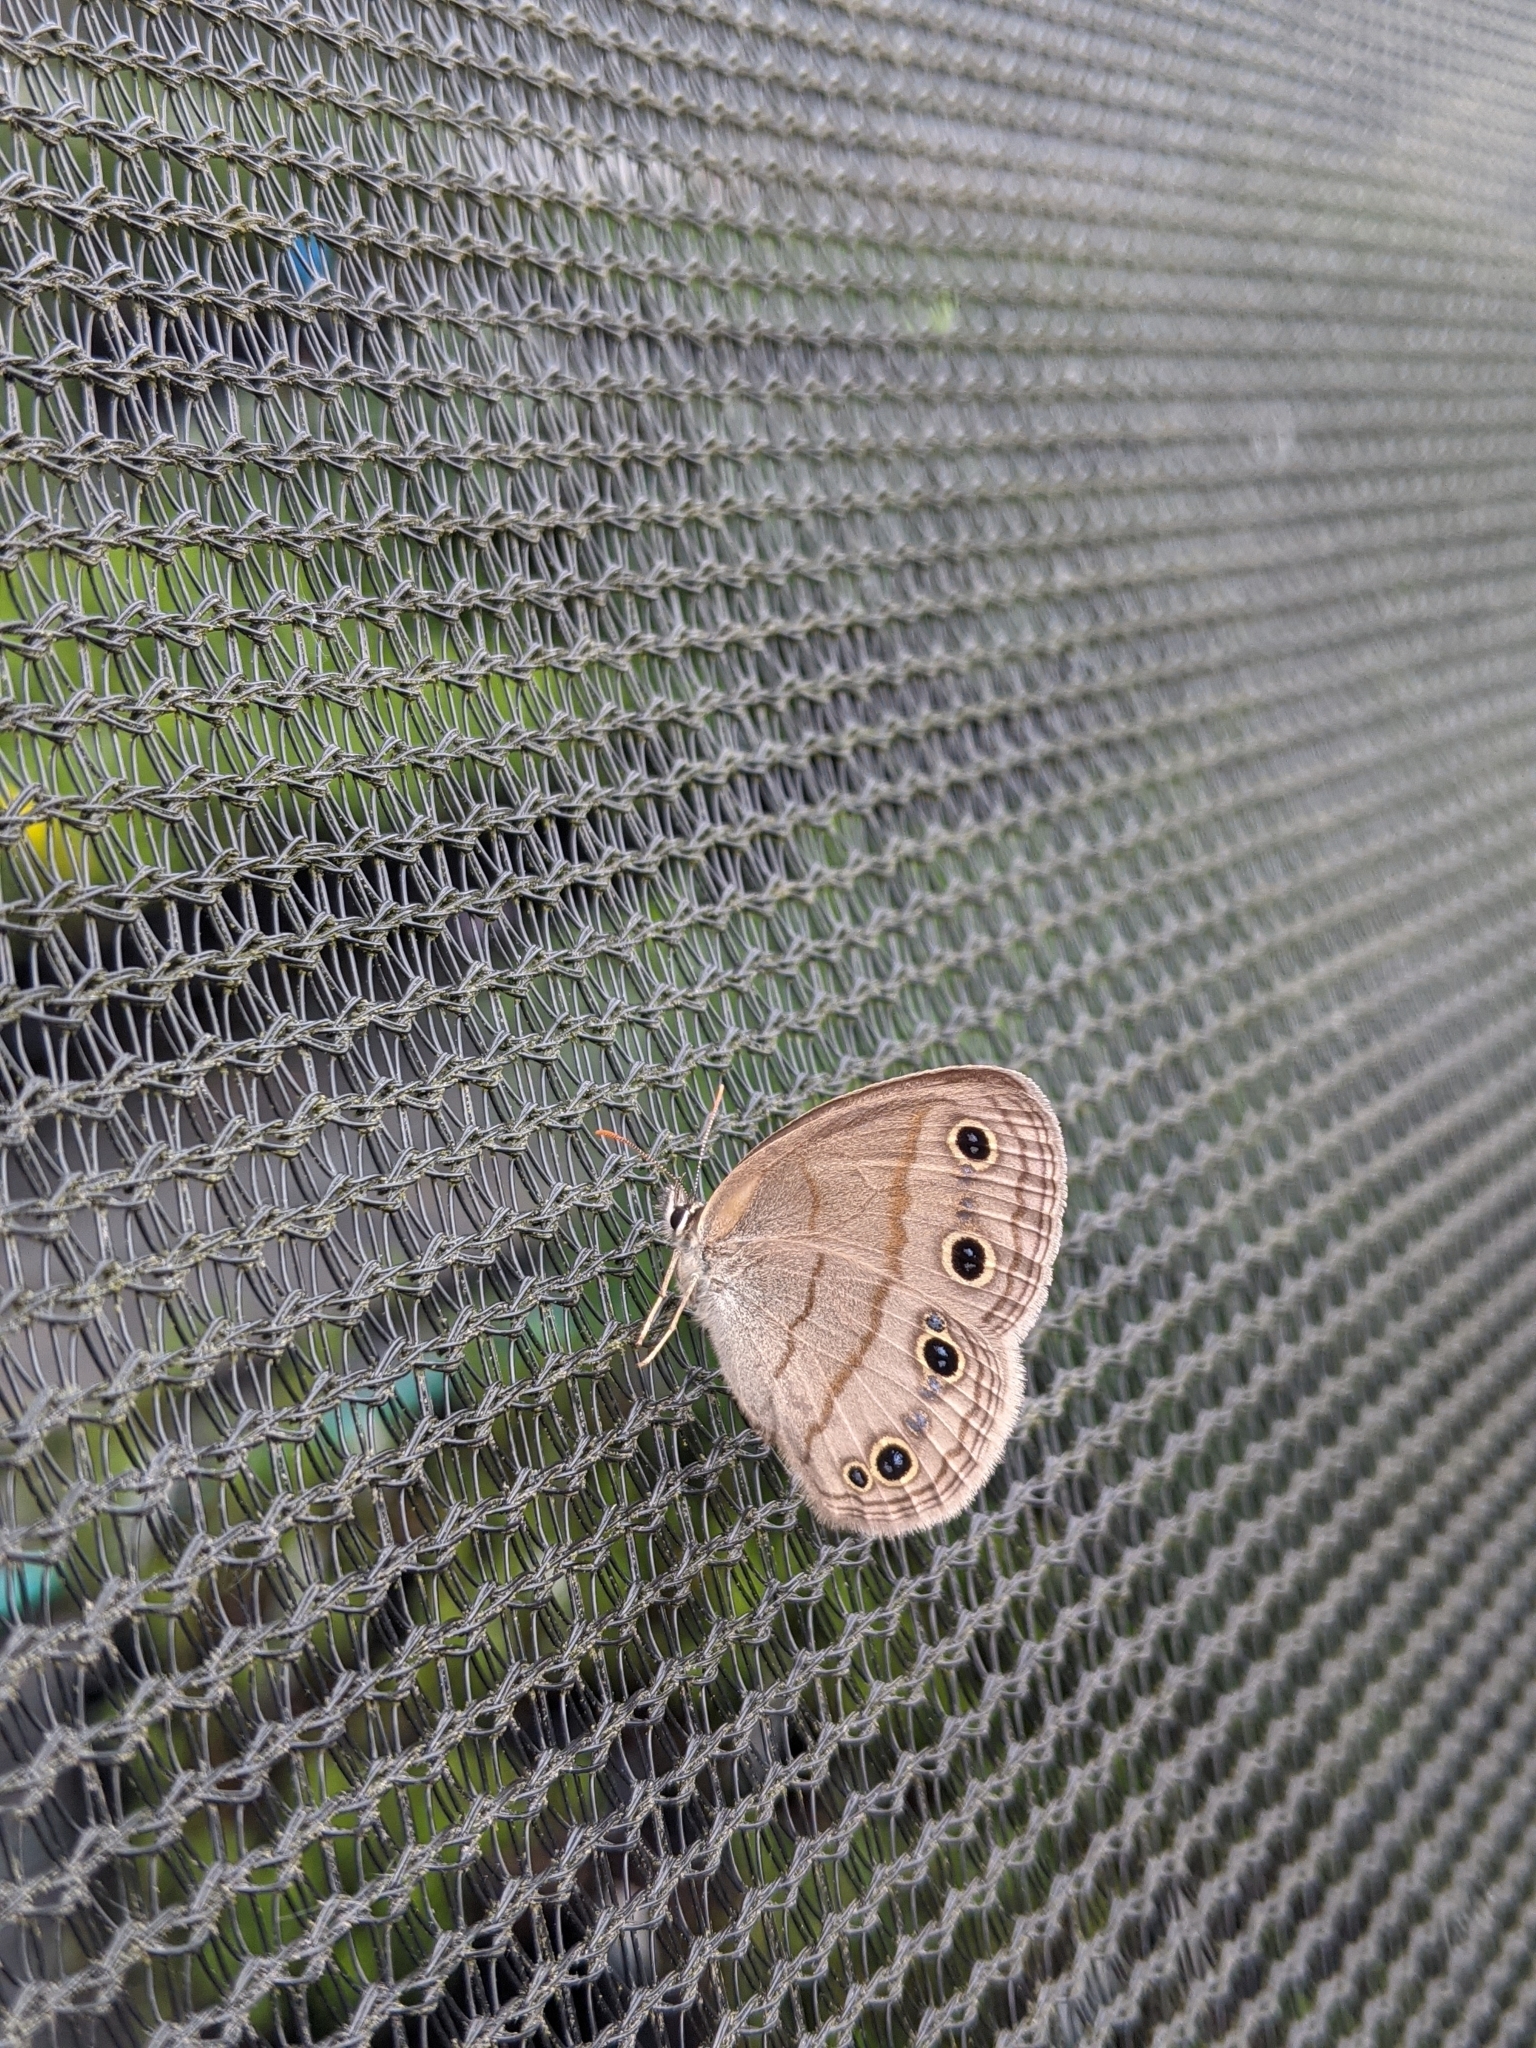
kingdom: Animalia
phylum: Arthropoda
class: Insecta
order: Lepidoptera
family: Nymphalidae
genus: Euptychia
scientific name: Euptychia cymela
